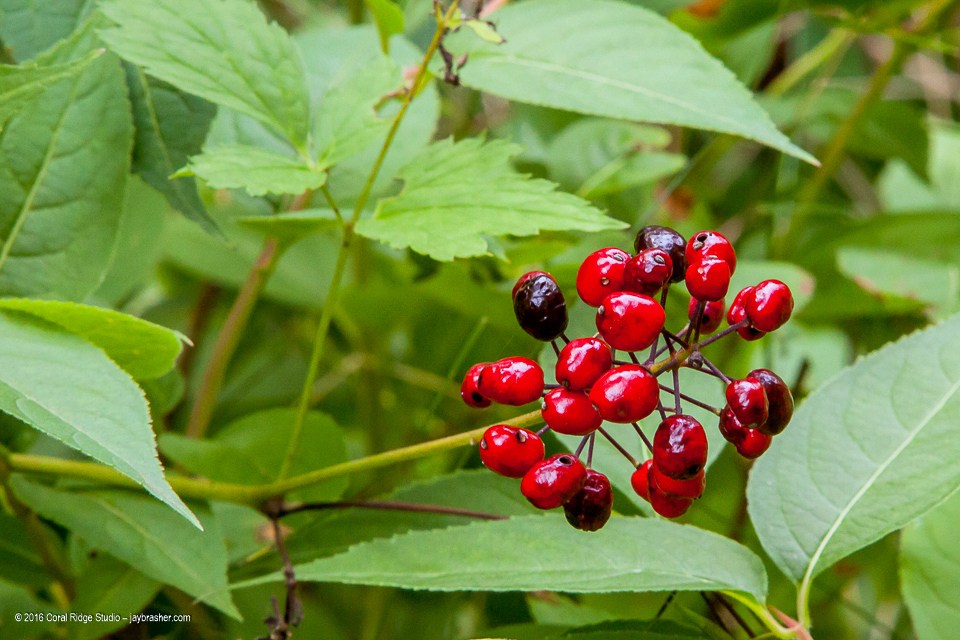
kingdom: Plantae
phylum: Tracheophyta
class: Magnoliopsida
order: Ranunculales
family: Ranunculaceae
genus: Actaea
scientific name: Actaea rubra
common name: Red baneberry
